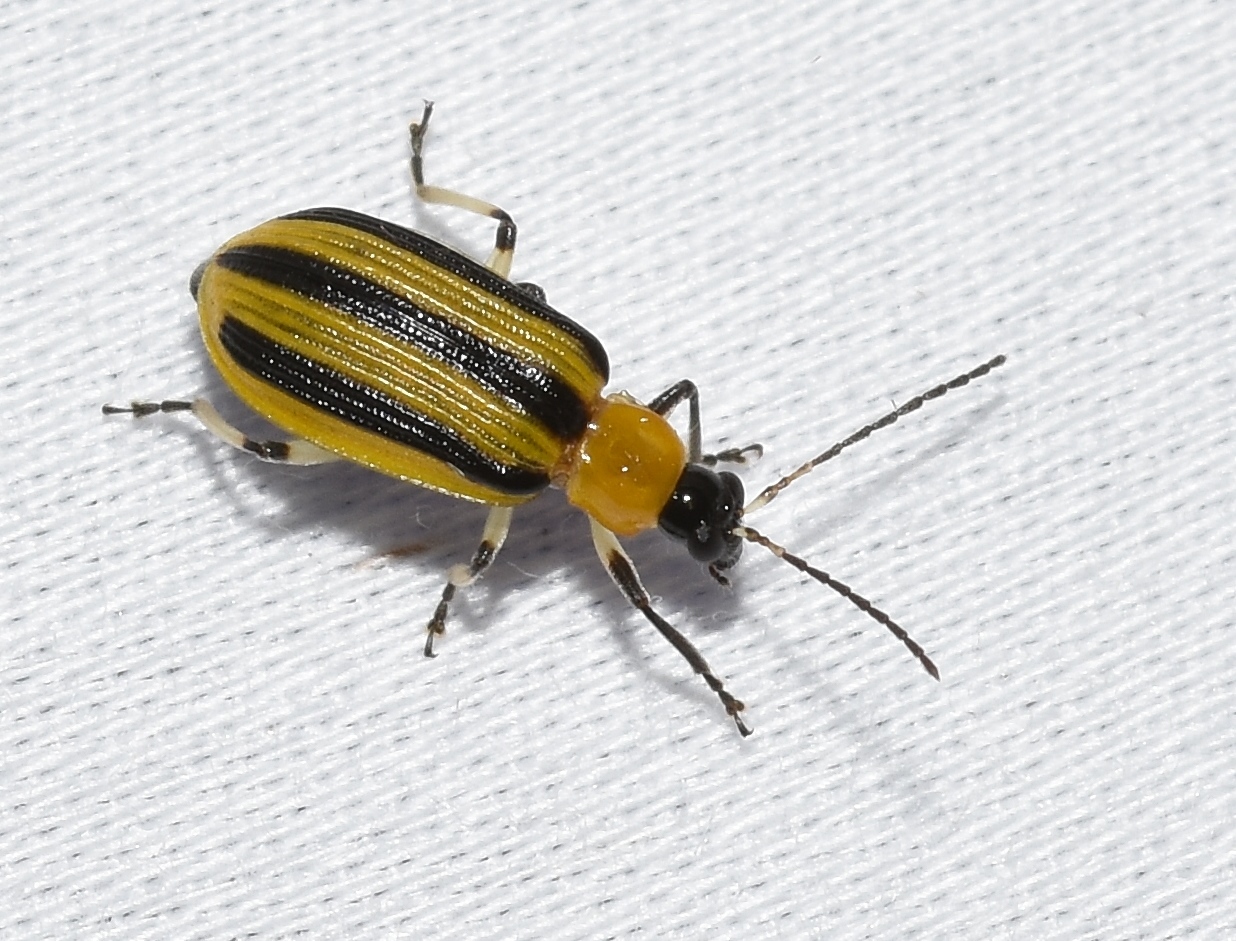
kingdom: Animalia
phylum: Arthropoda
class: Insecta
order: Coleoptera
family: Chrysomelidae
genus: Acalymma
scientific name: Acalymma vittatum
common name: Striped cucumber beetle
